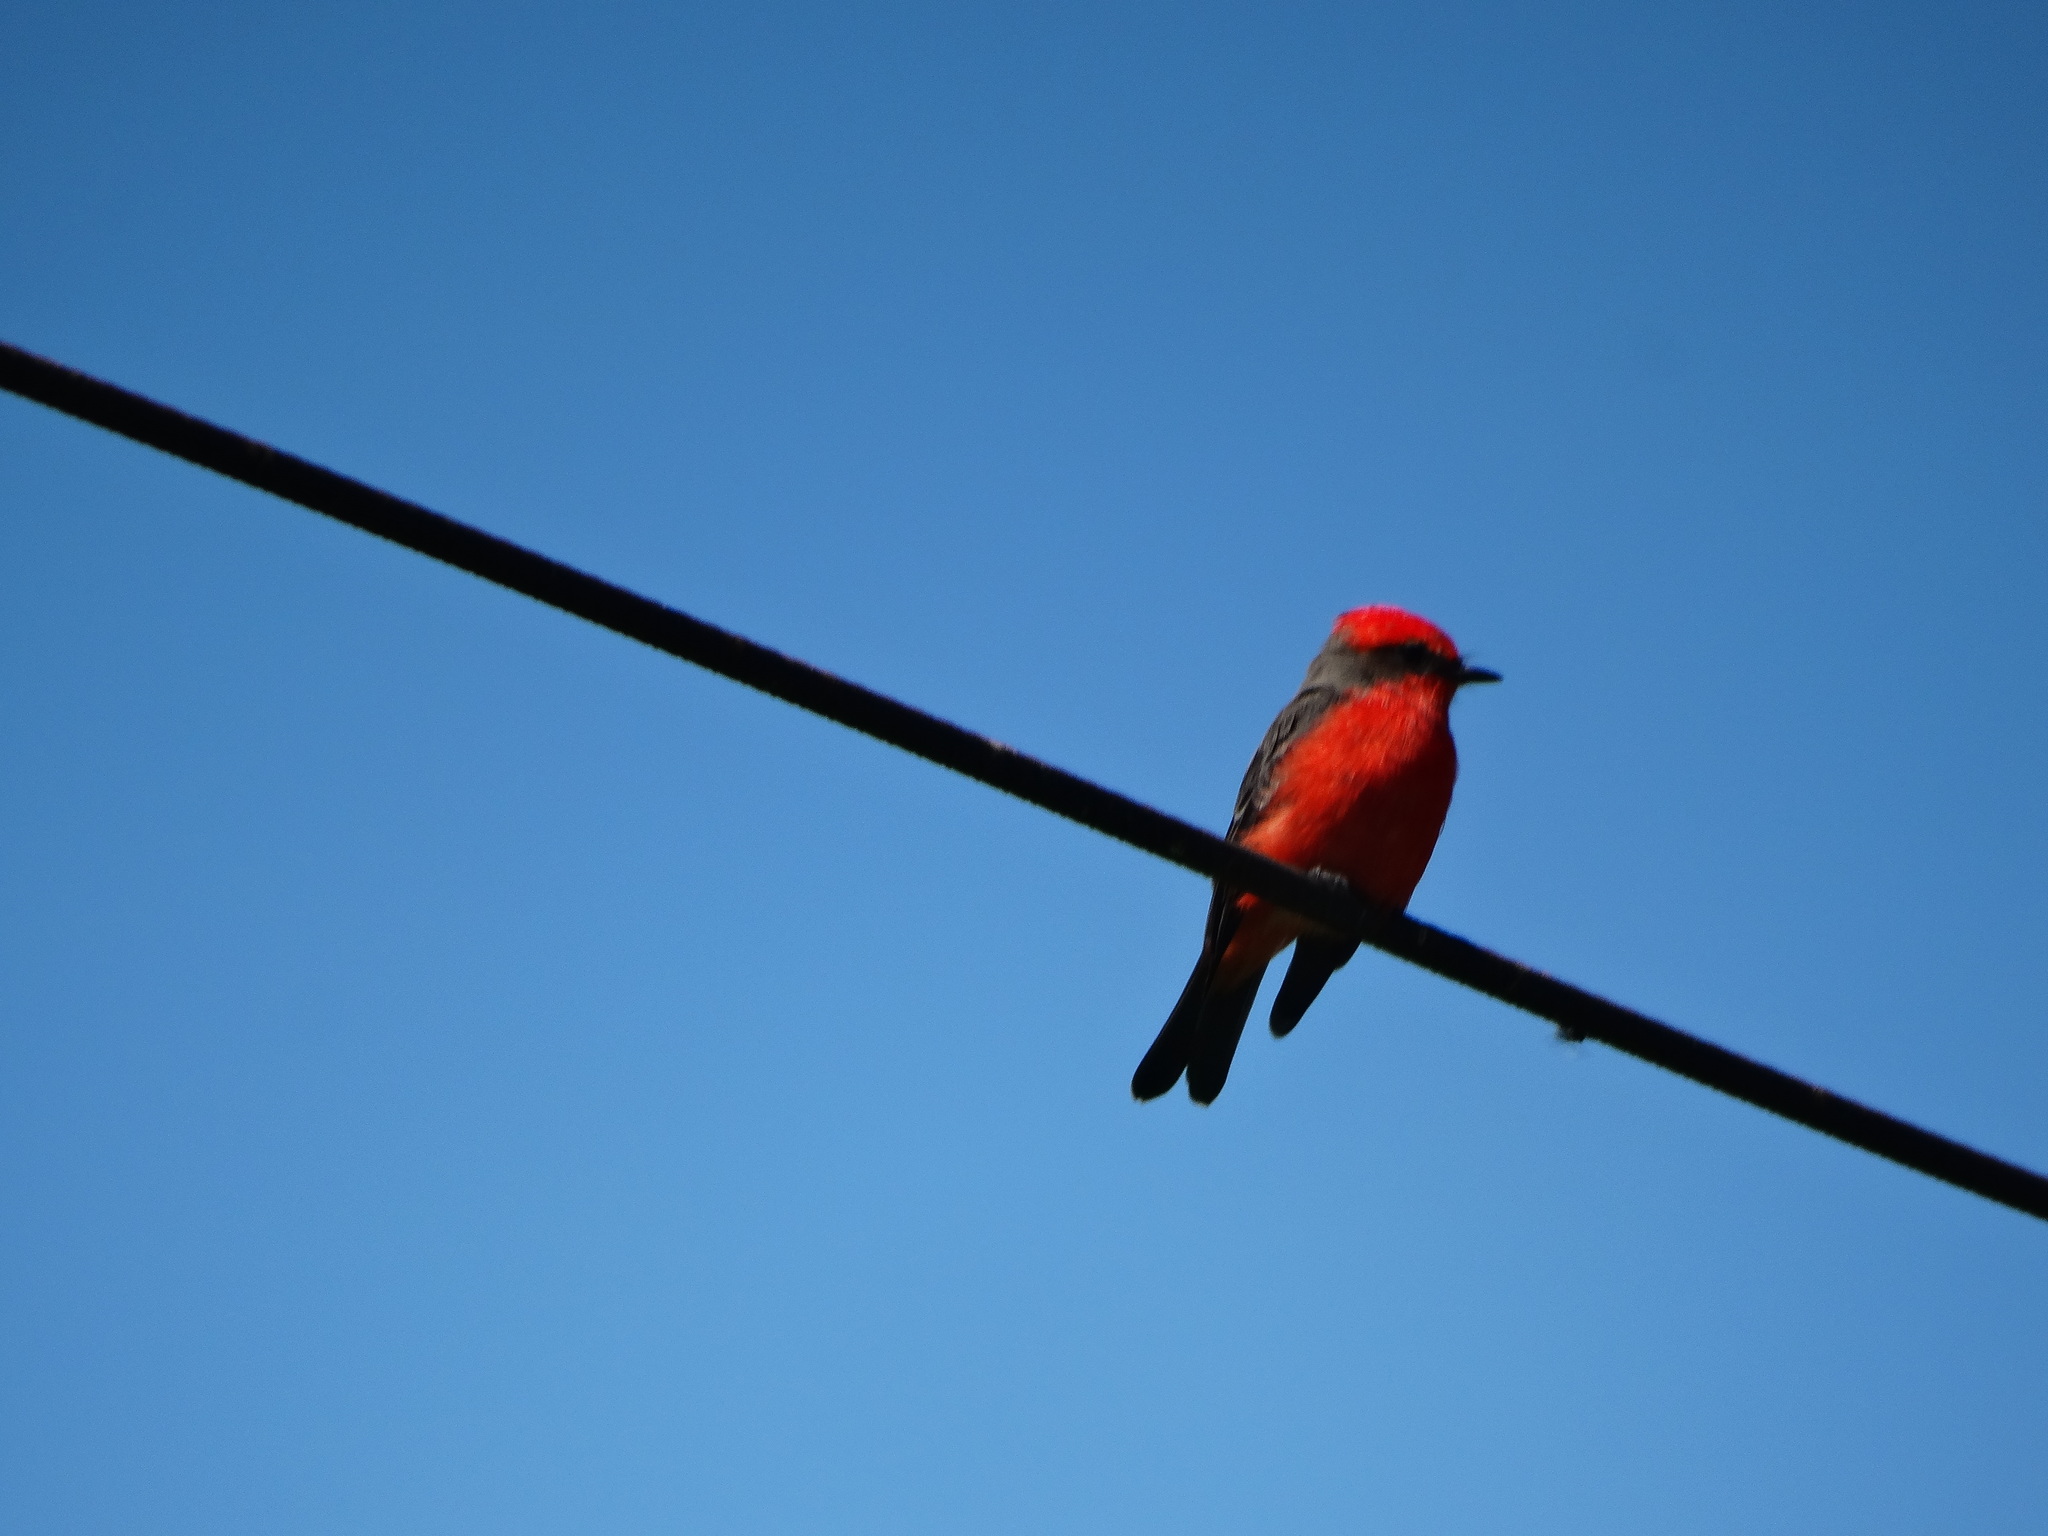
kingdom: Animalia
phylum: Chordata
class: Aves
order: Passeriformes
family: Tyrannidae
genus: Pyrocephalus
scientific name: Pyrocephalus rubinus
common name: Vermilion flycatcher
